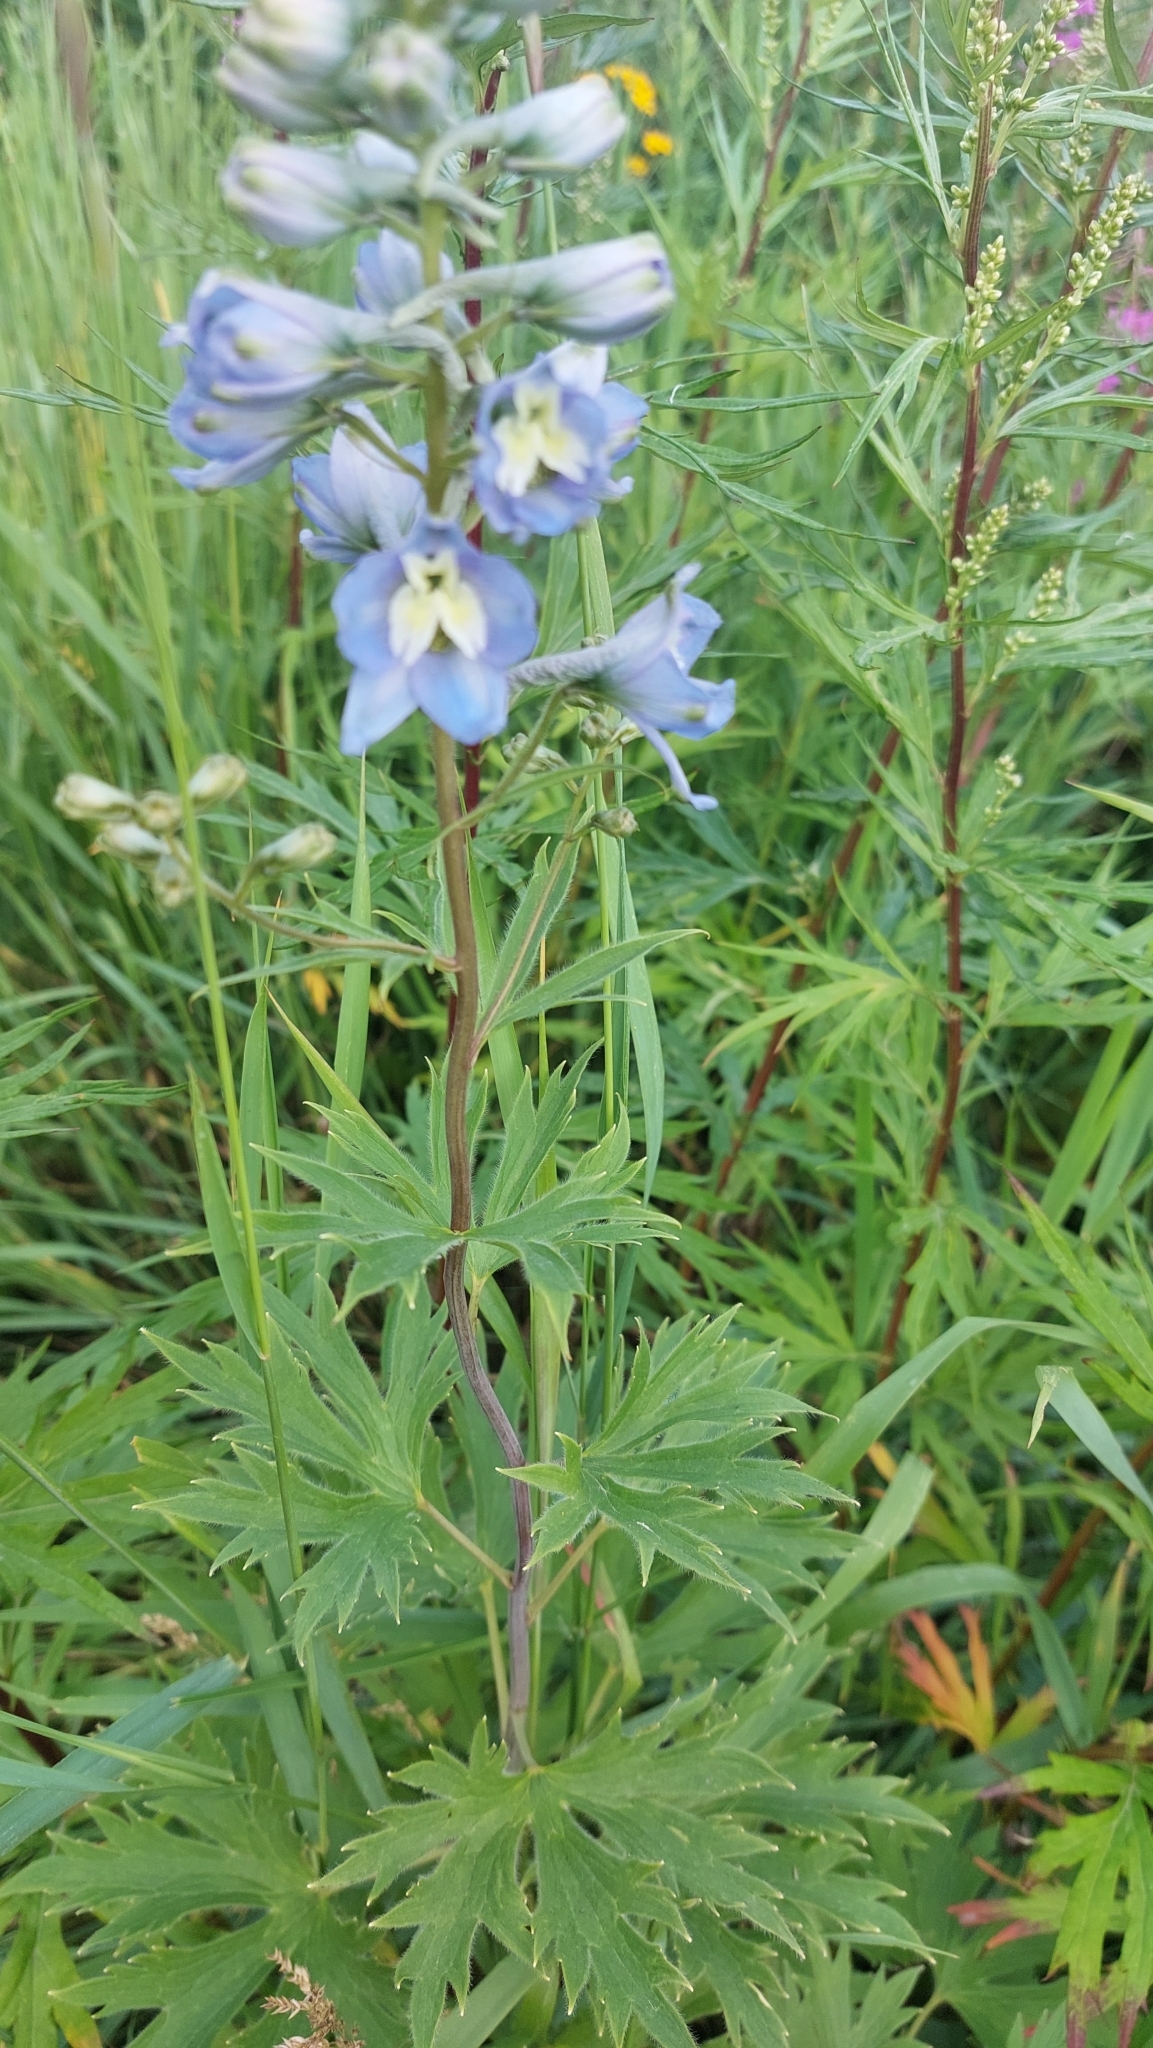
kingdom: Plantae
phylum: Tracheophyta
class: Magnoliopsida
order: Ranunculales
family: Ranunculaceae
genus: Delphinium
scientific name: Delphinium elatum
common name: Candle larkspur
